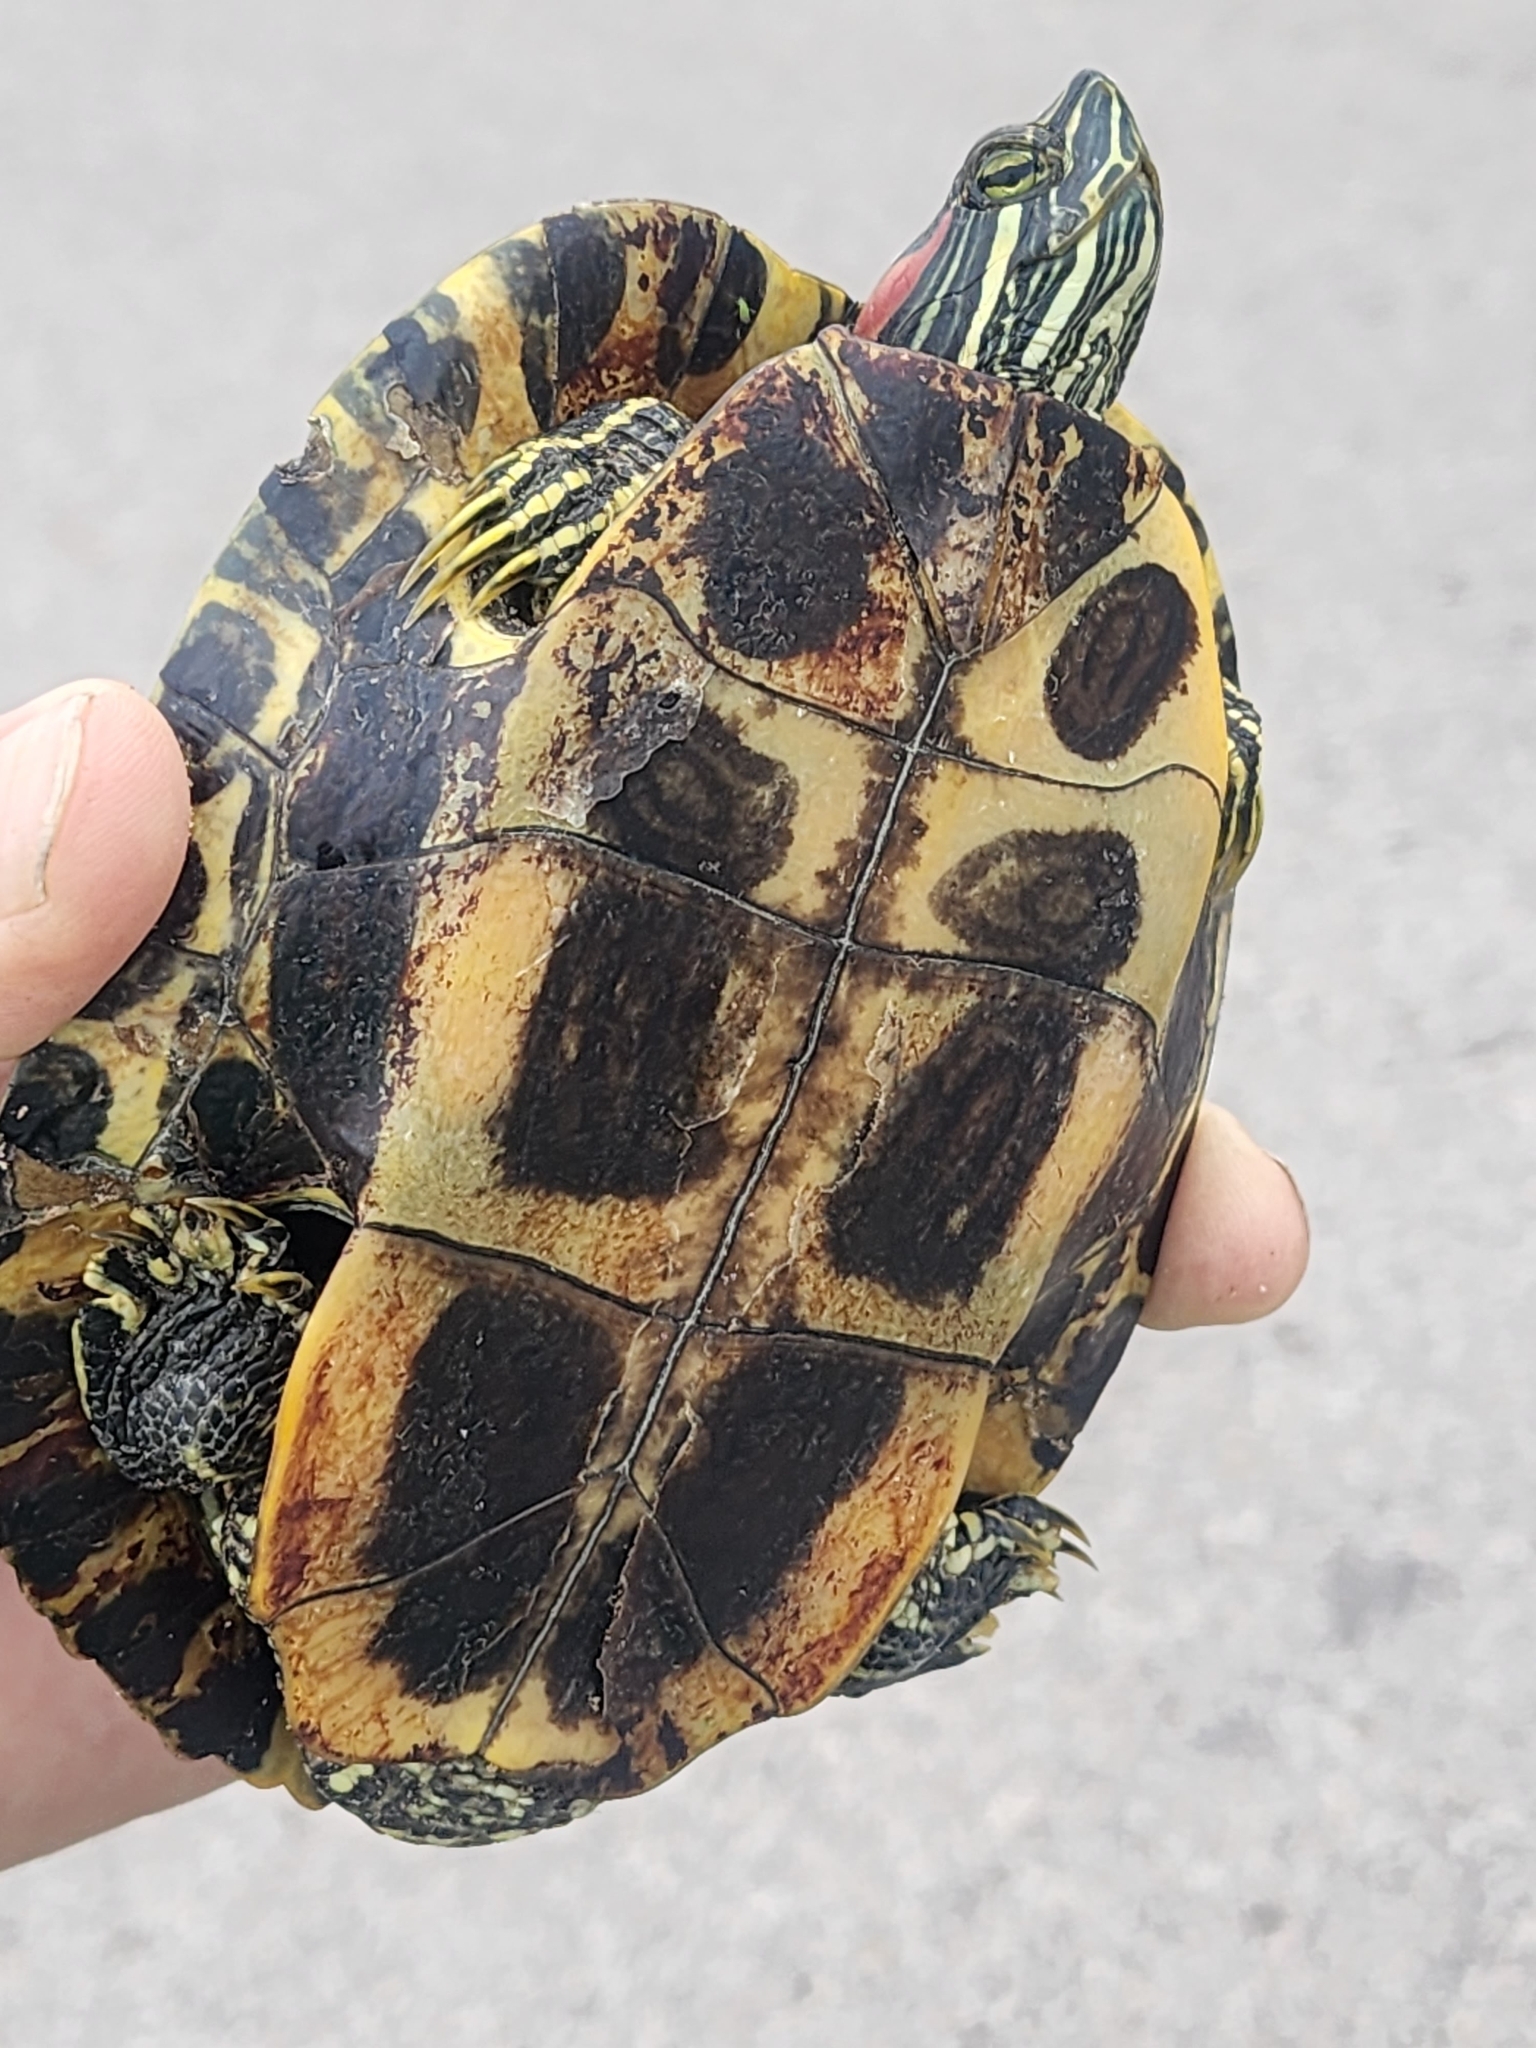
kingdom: Animalia
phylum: Chordata
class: Testudines
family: Emydidae
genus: Trachemys
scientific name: Trachemys scripta
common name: Slider
